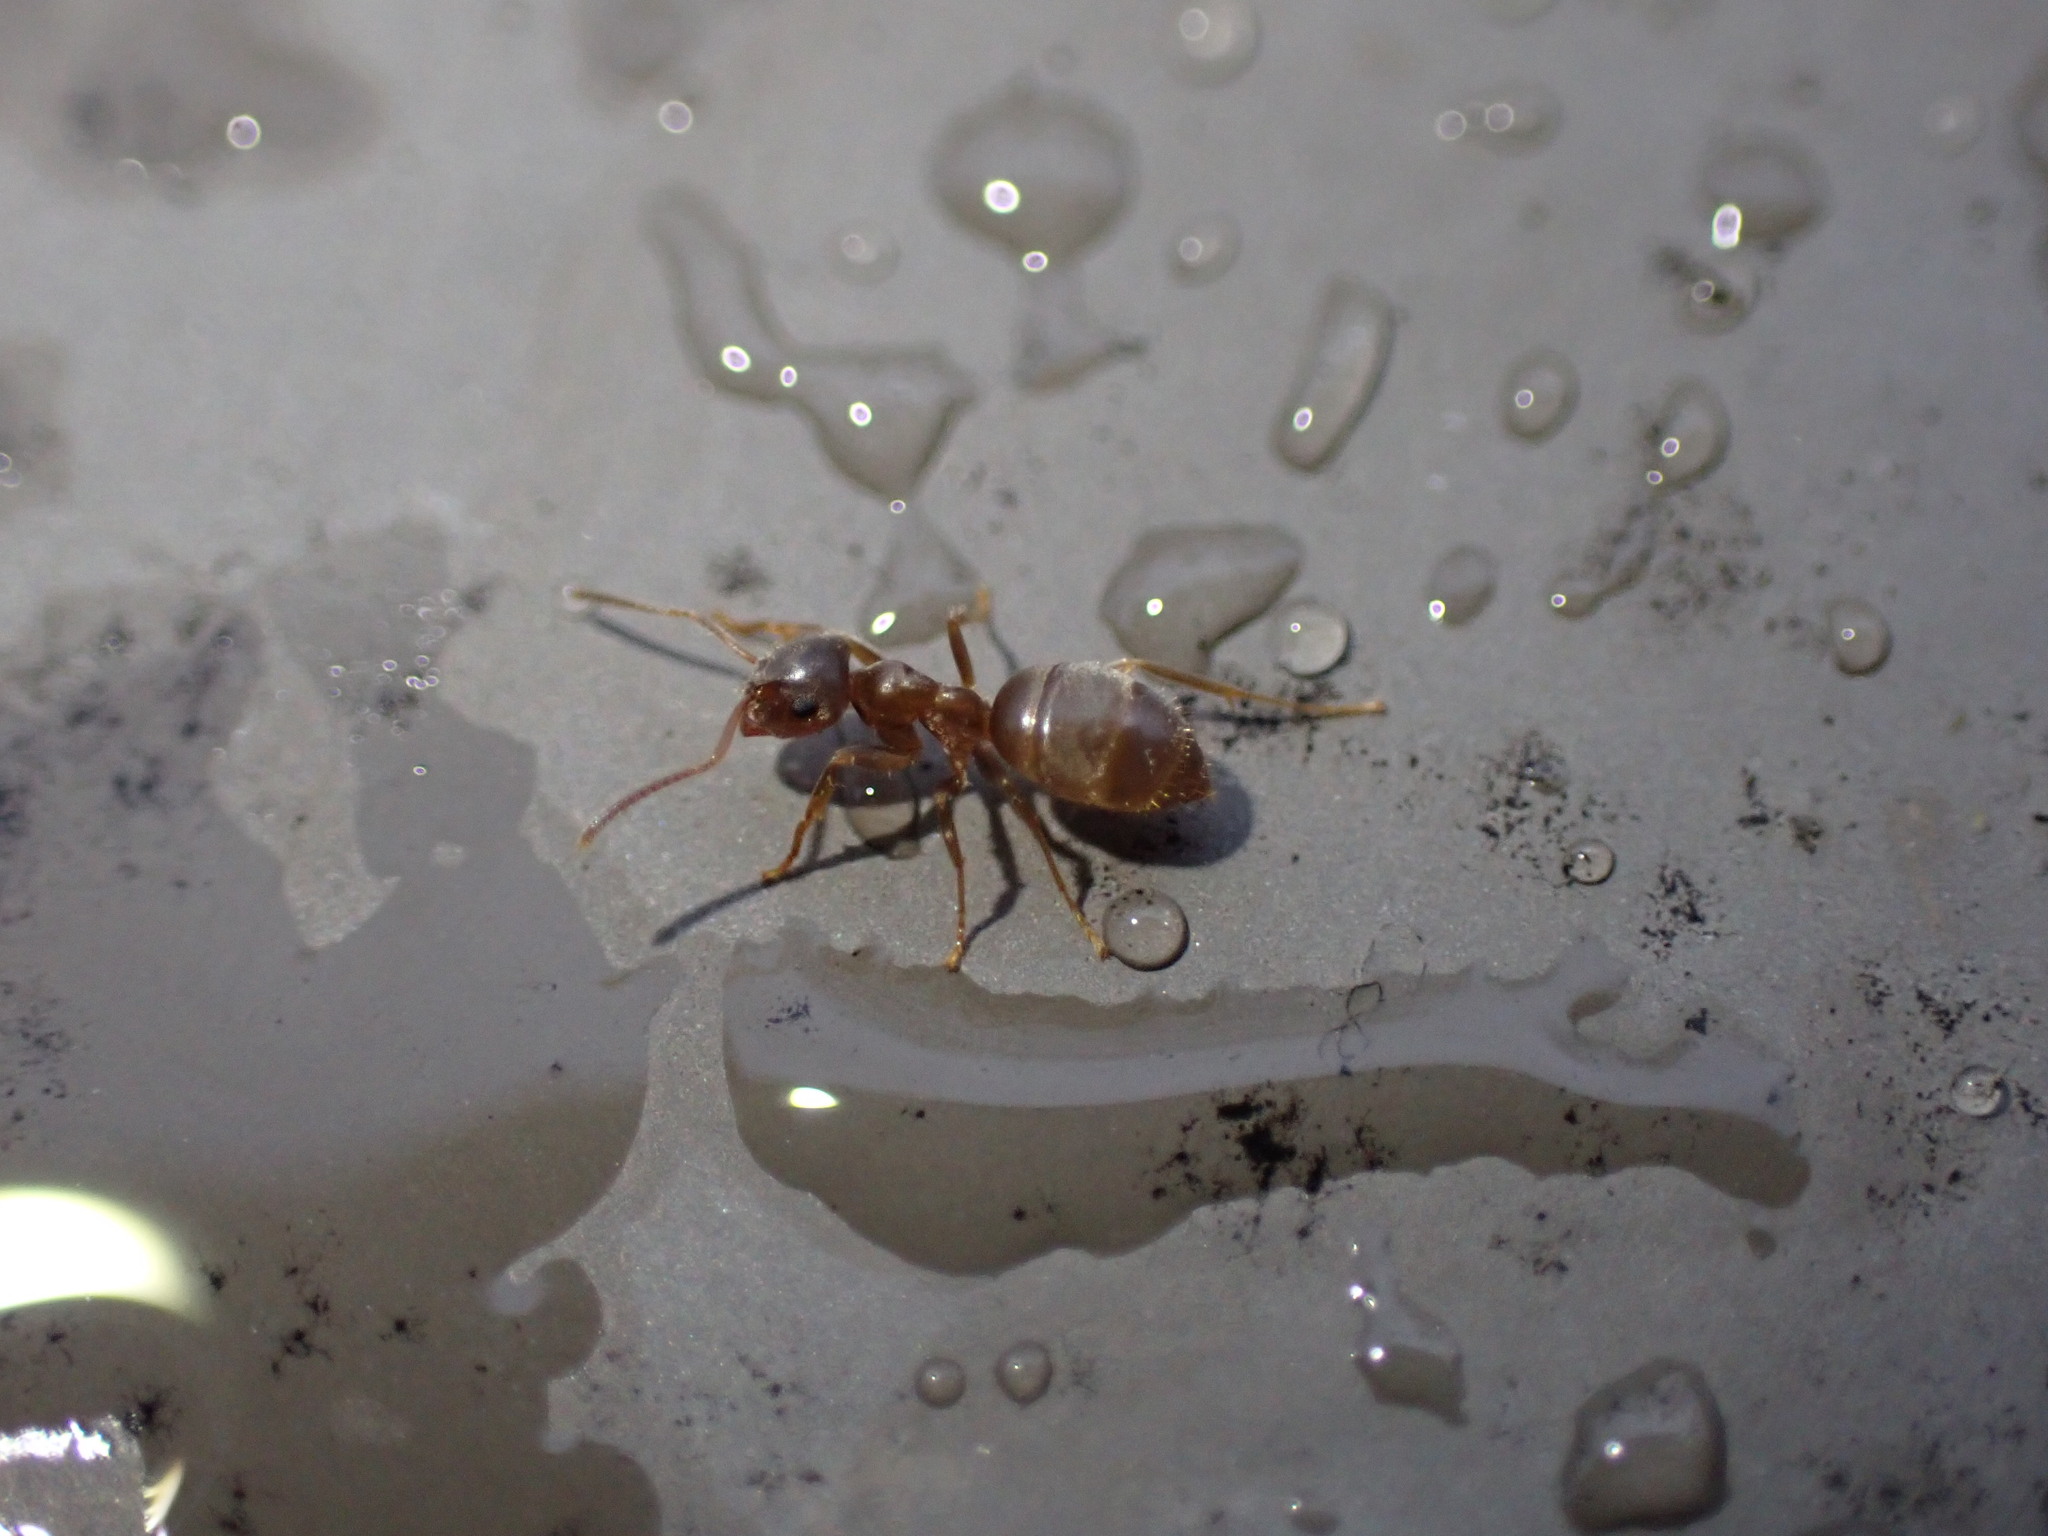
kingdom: Animalia
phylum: Arthropoda
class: Insecta
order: Hymenoptera
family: Formicidae
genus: Lasius
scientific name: Lasius neoniger
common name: Turfgrass ant
